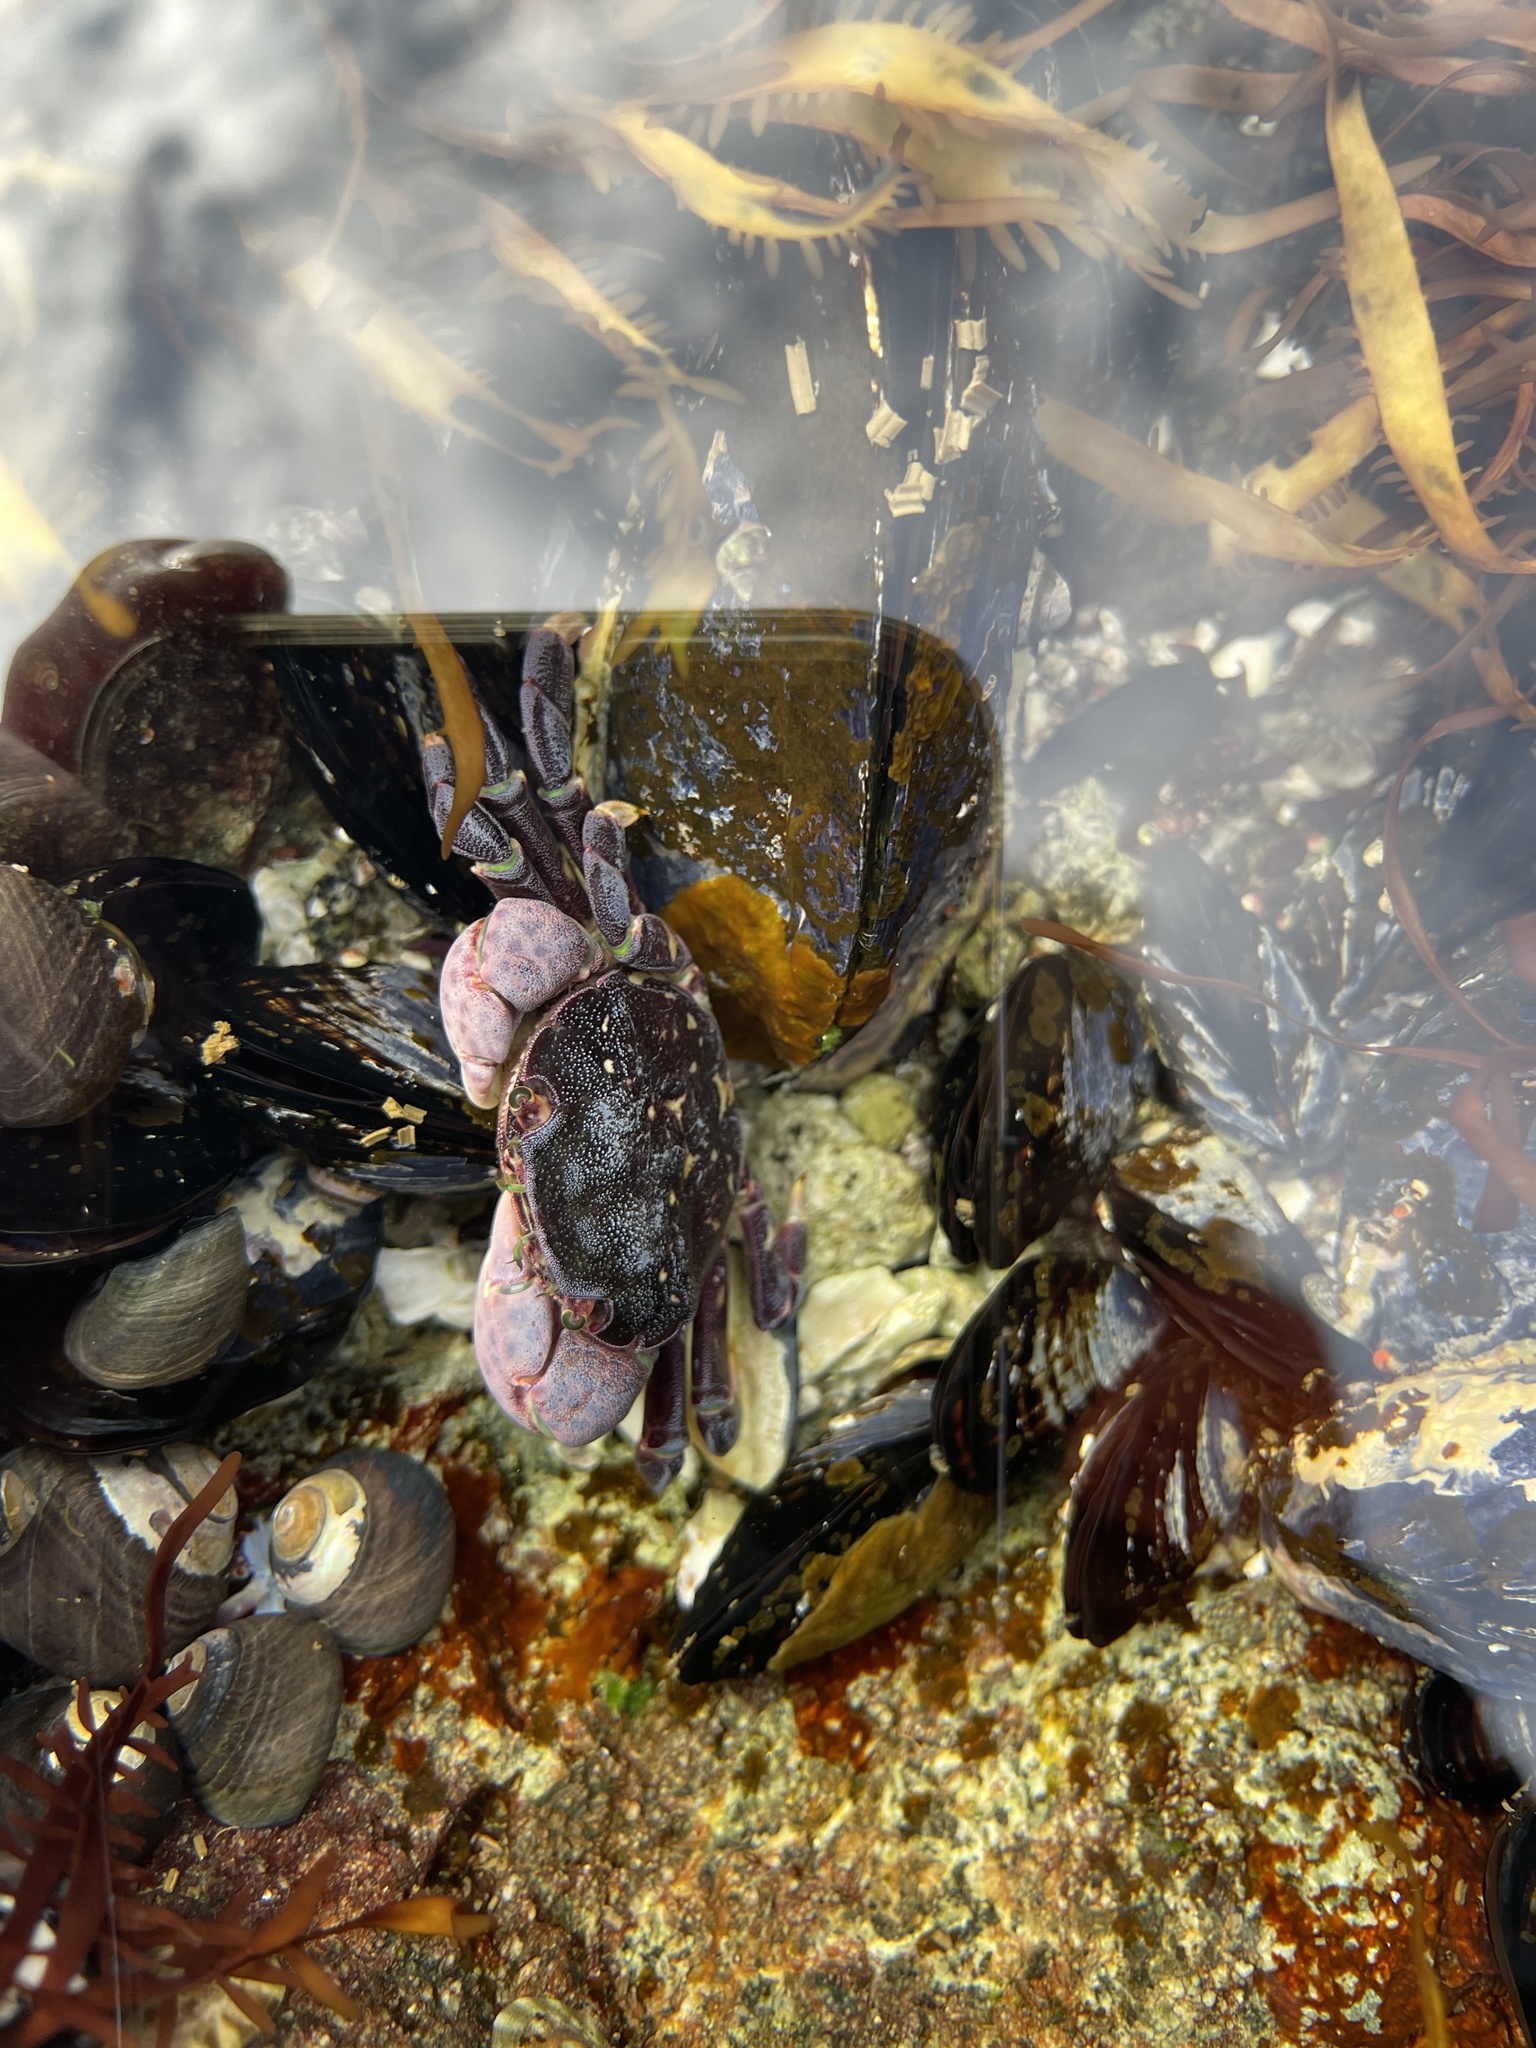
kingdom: Animalia
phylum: Arthropoda
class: Malacostraca
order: Decapoda
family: Varunidae
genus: Hemigrapsus
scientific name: Hemigrapsus nudus
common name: Purple shore crab
